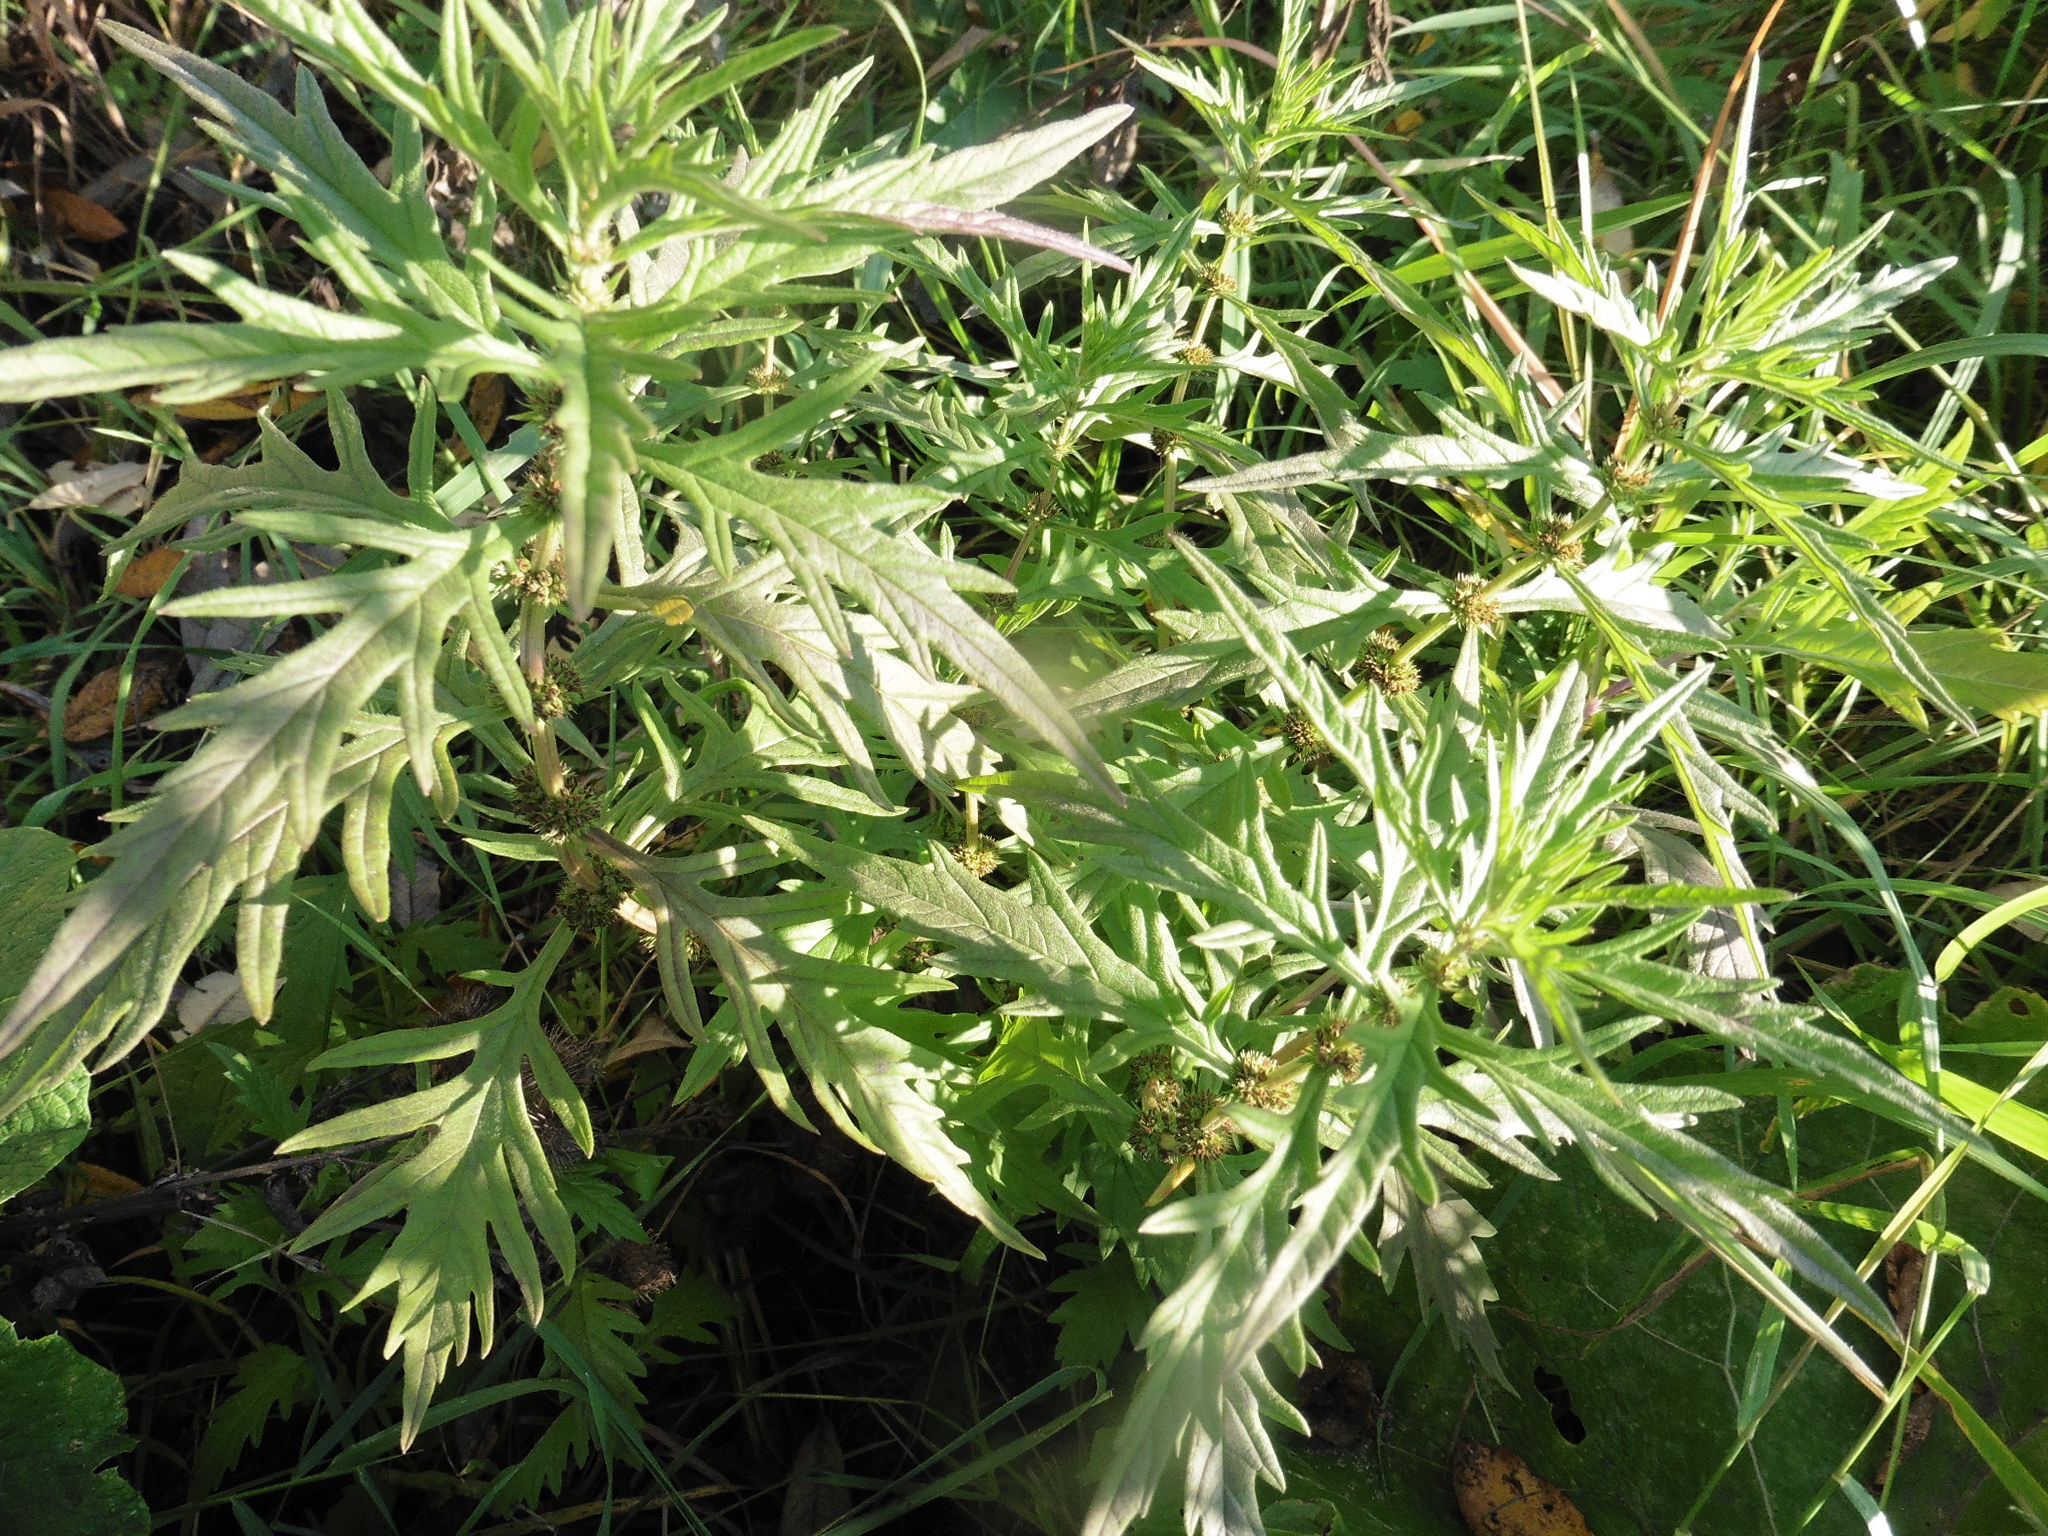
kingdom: Plantae
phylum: Tracheophyta
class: Magnoliopsida
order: Lamiales
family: Lamiaceae
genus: Lycopus
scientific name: Lycopus exaltatus
